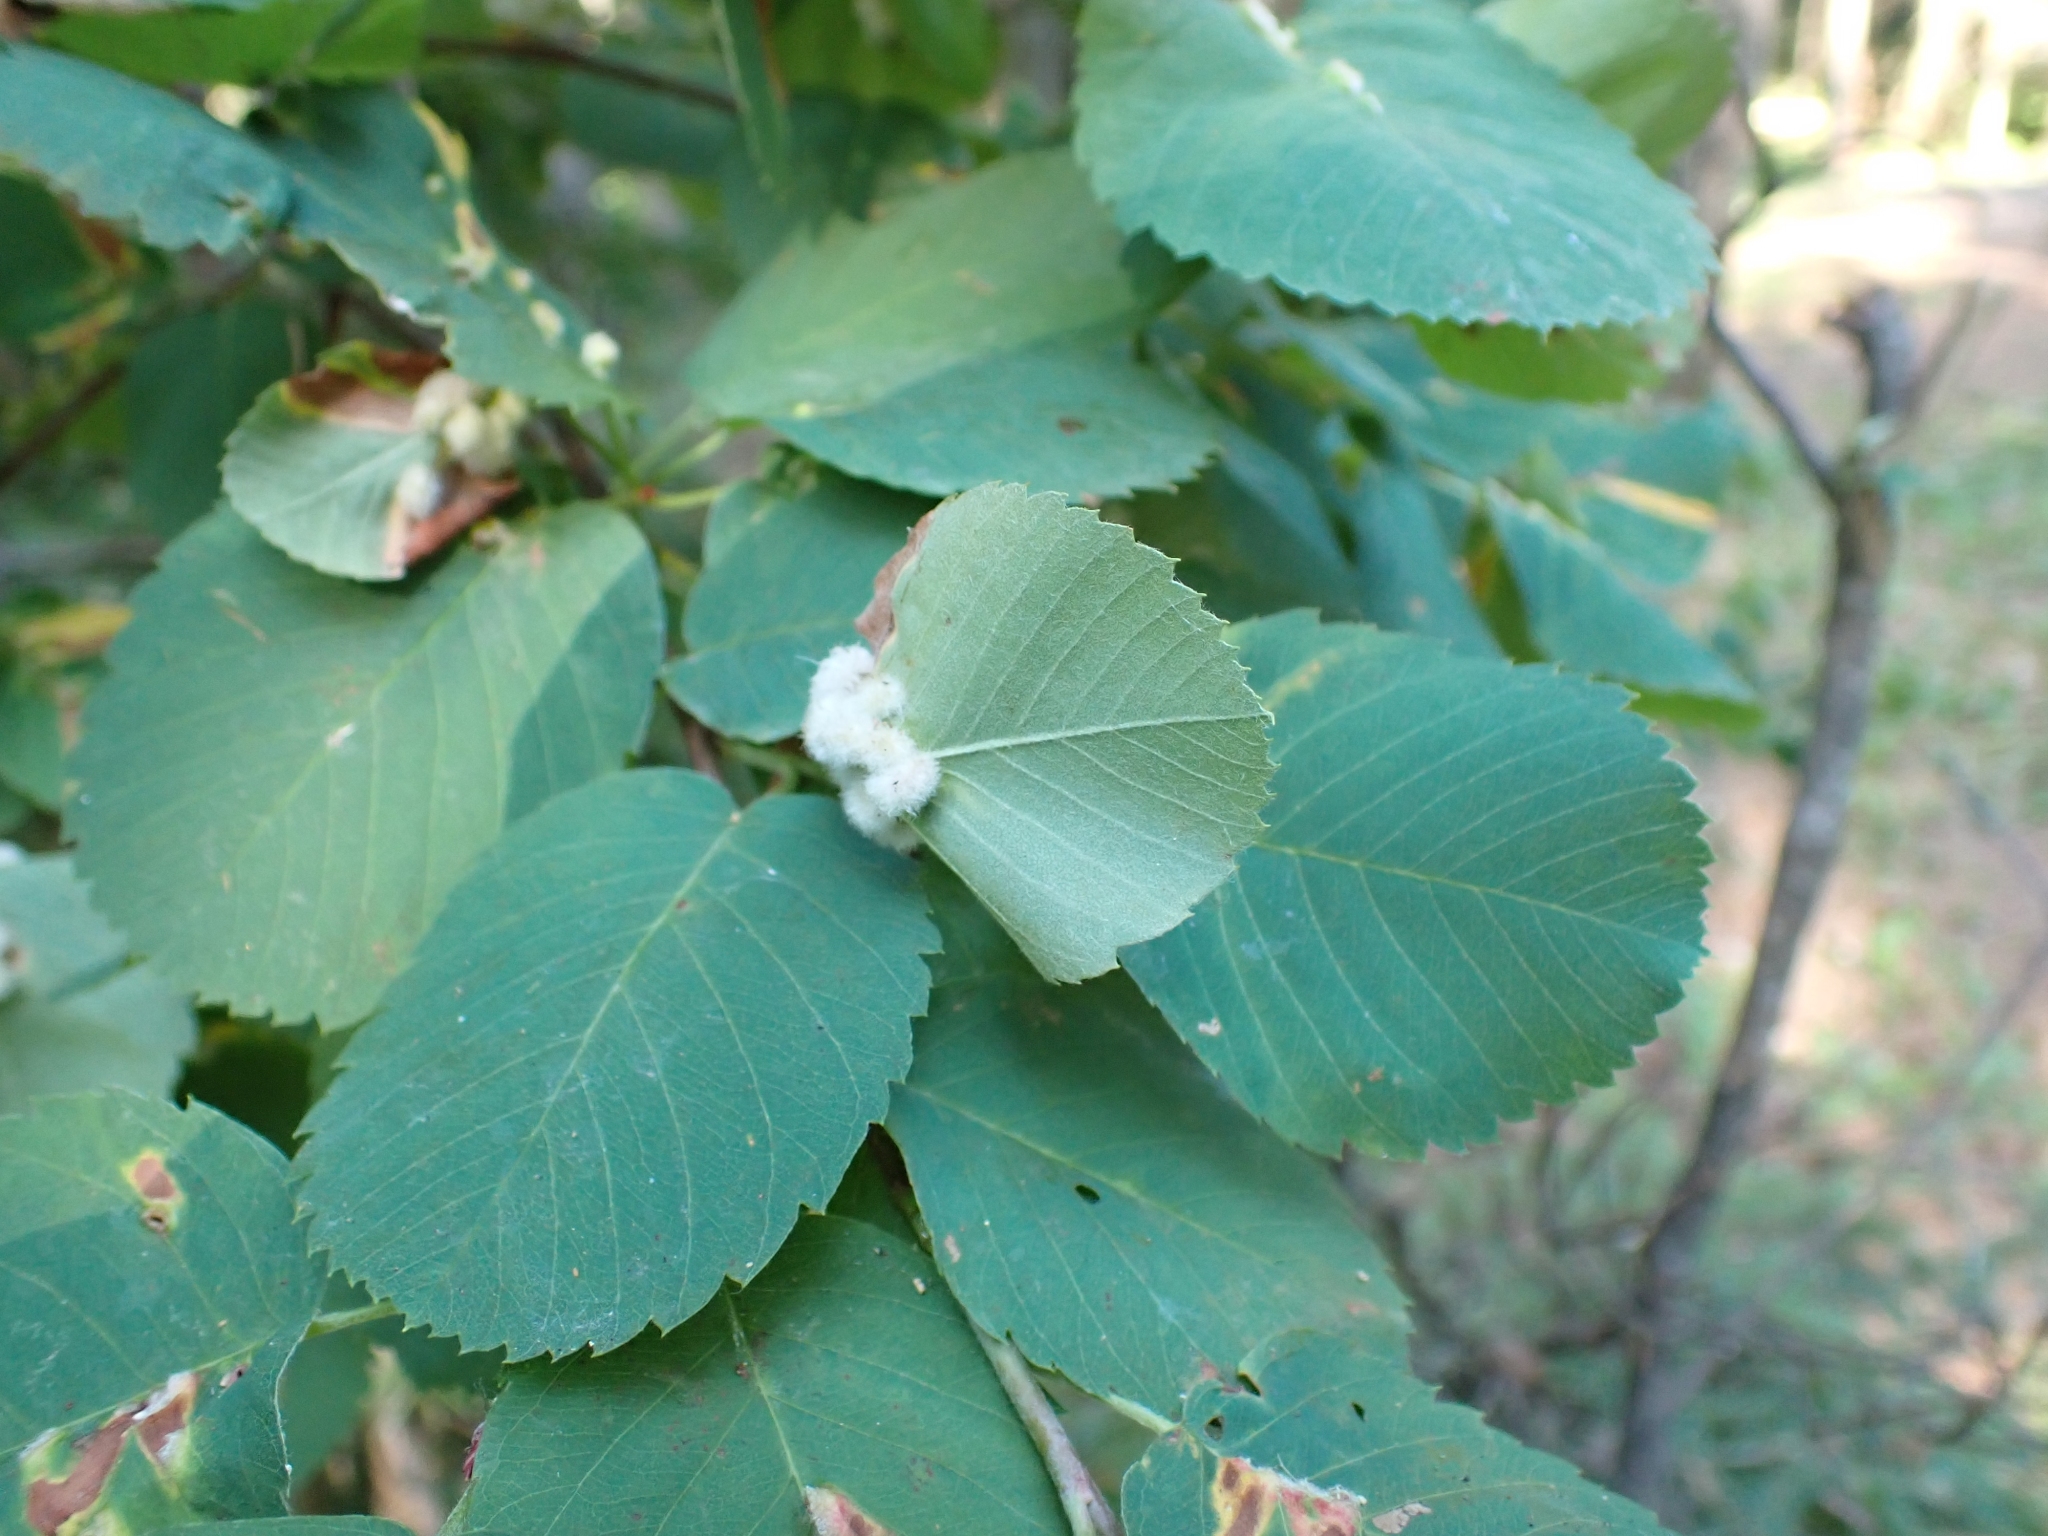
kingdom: Plantae
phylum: Tracheophyta
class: Magnoliopsida
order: Rosales
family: Rosaceae
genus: Amelanchier
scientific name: Amelanchier alnifolia
